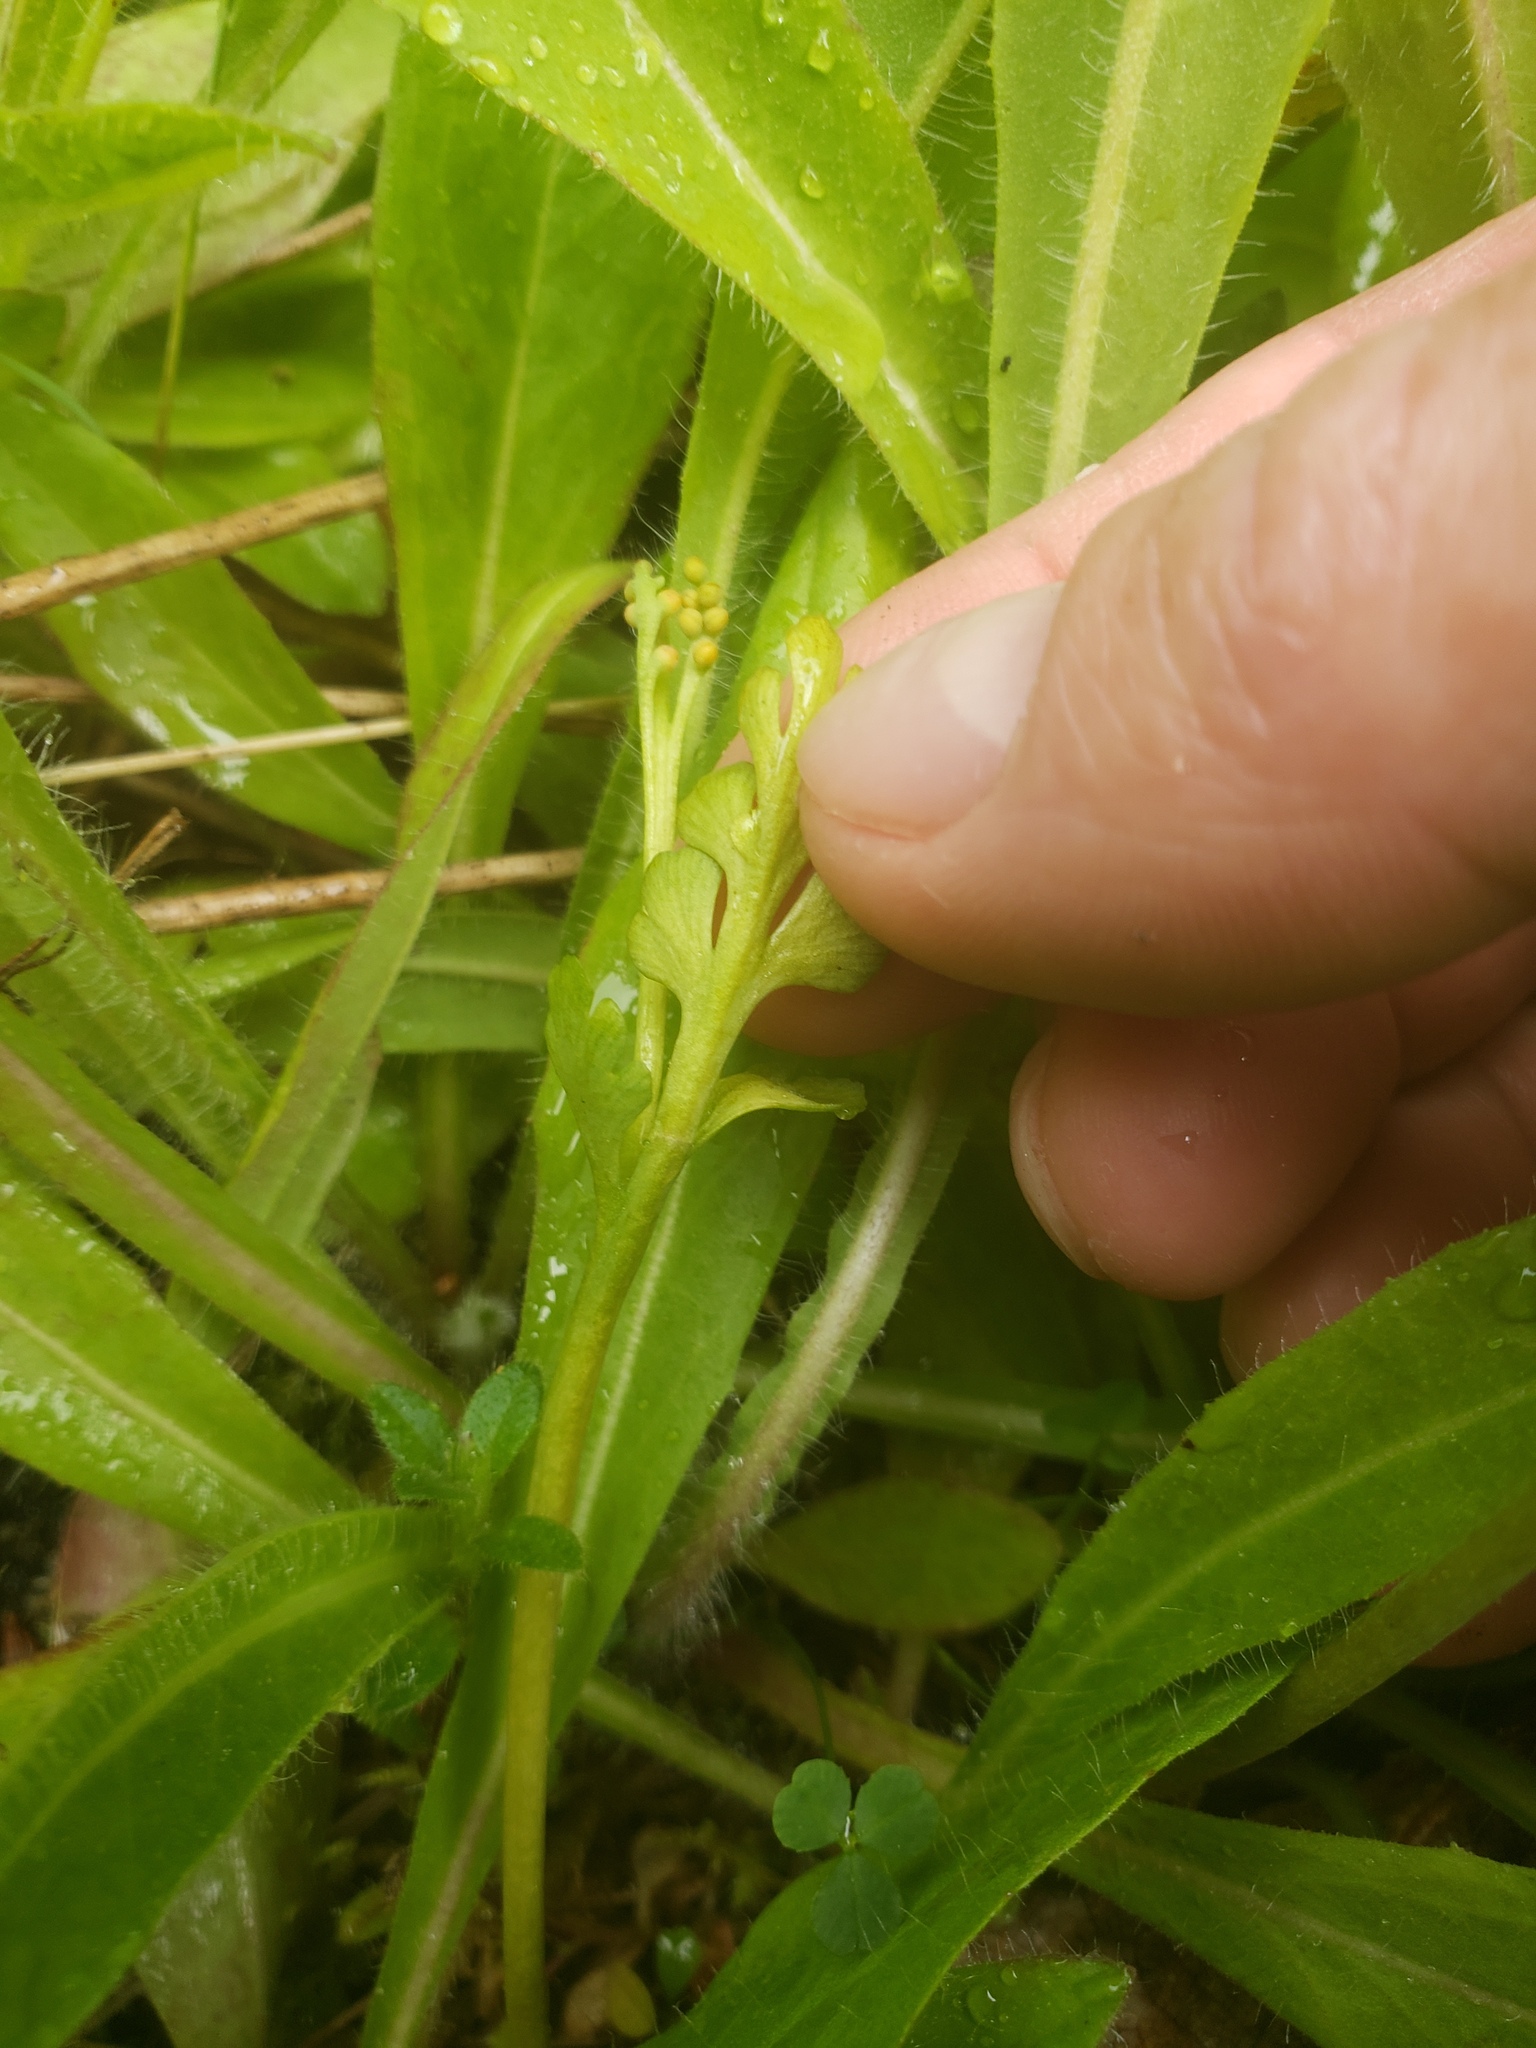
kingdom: Plantae
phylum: Tracheophyta
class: Polypodiopsida
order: Ophioglossales
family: Ophioglossaceae
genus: Botrychium
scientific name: Botrychium michiganense
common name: Michigan moonwort
